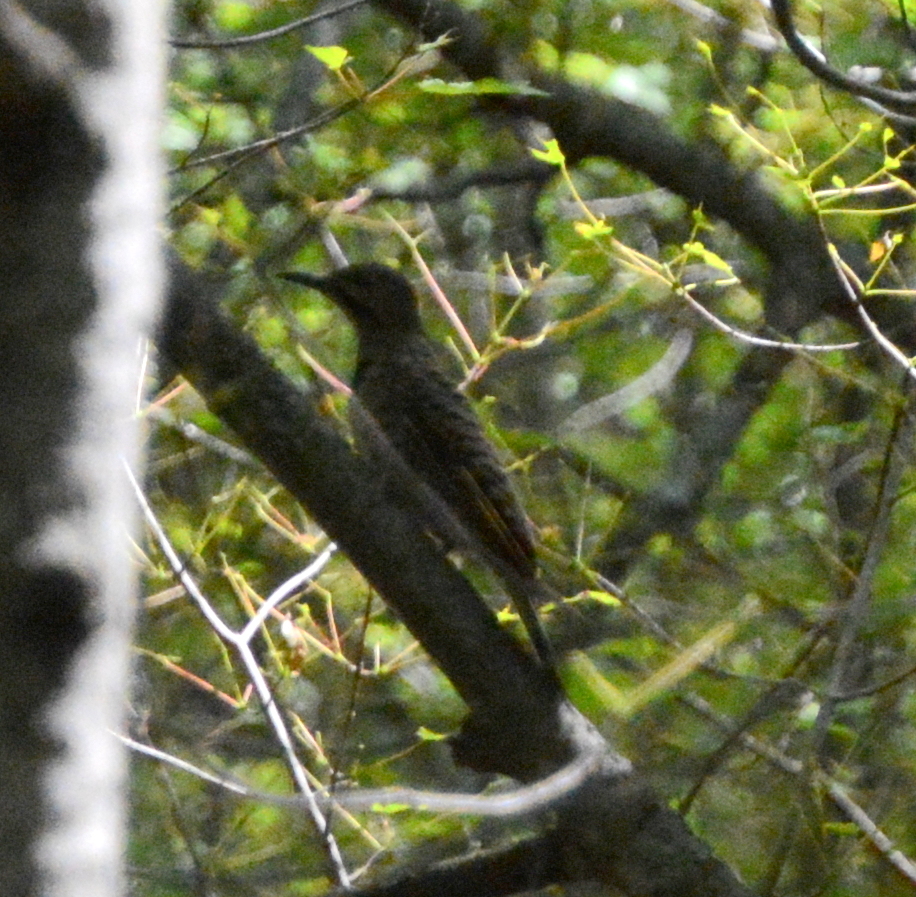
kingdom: Animalia
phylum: Chordata
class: Aves
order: Piciformes
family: Picidae
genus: Colaptes
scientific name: Colaptes auratus
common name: Northern flicker
